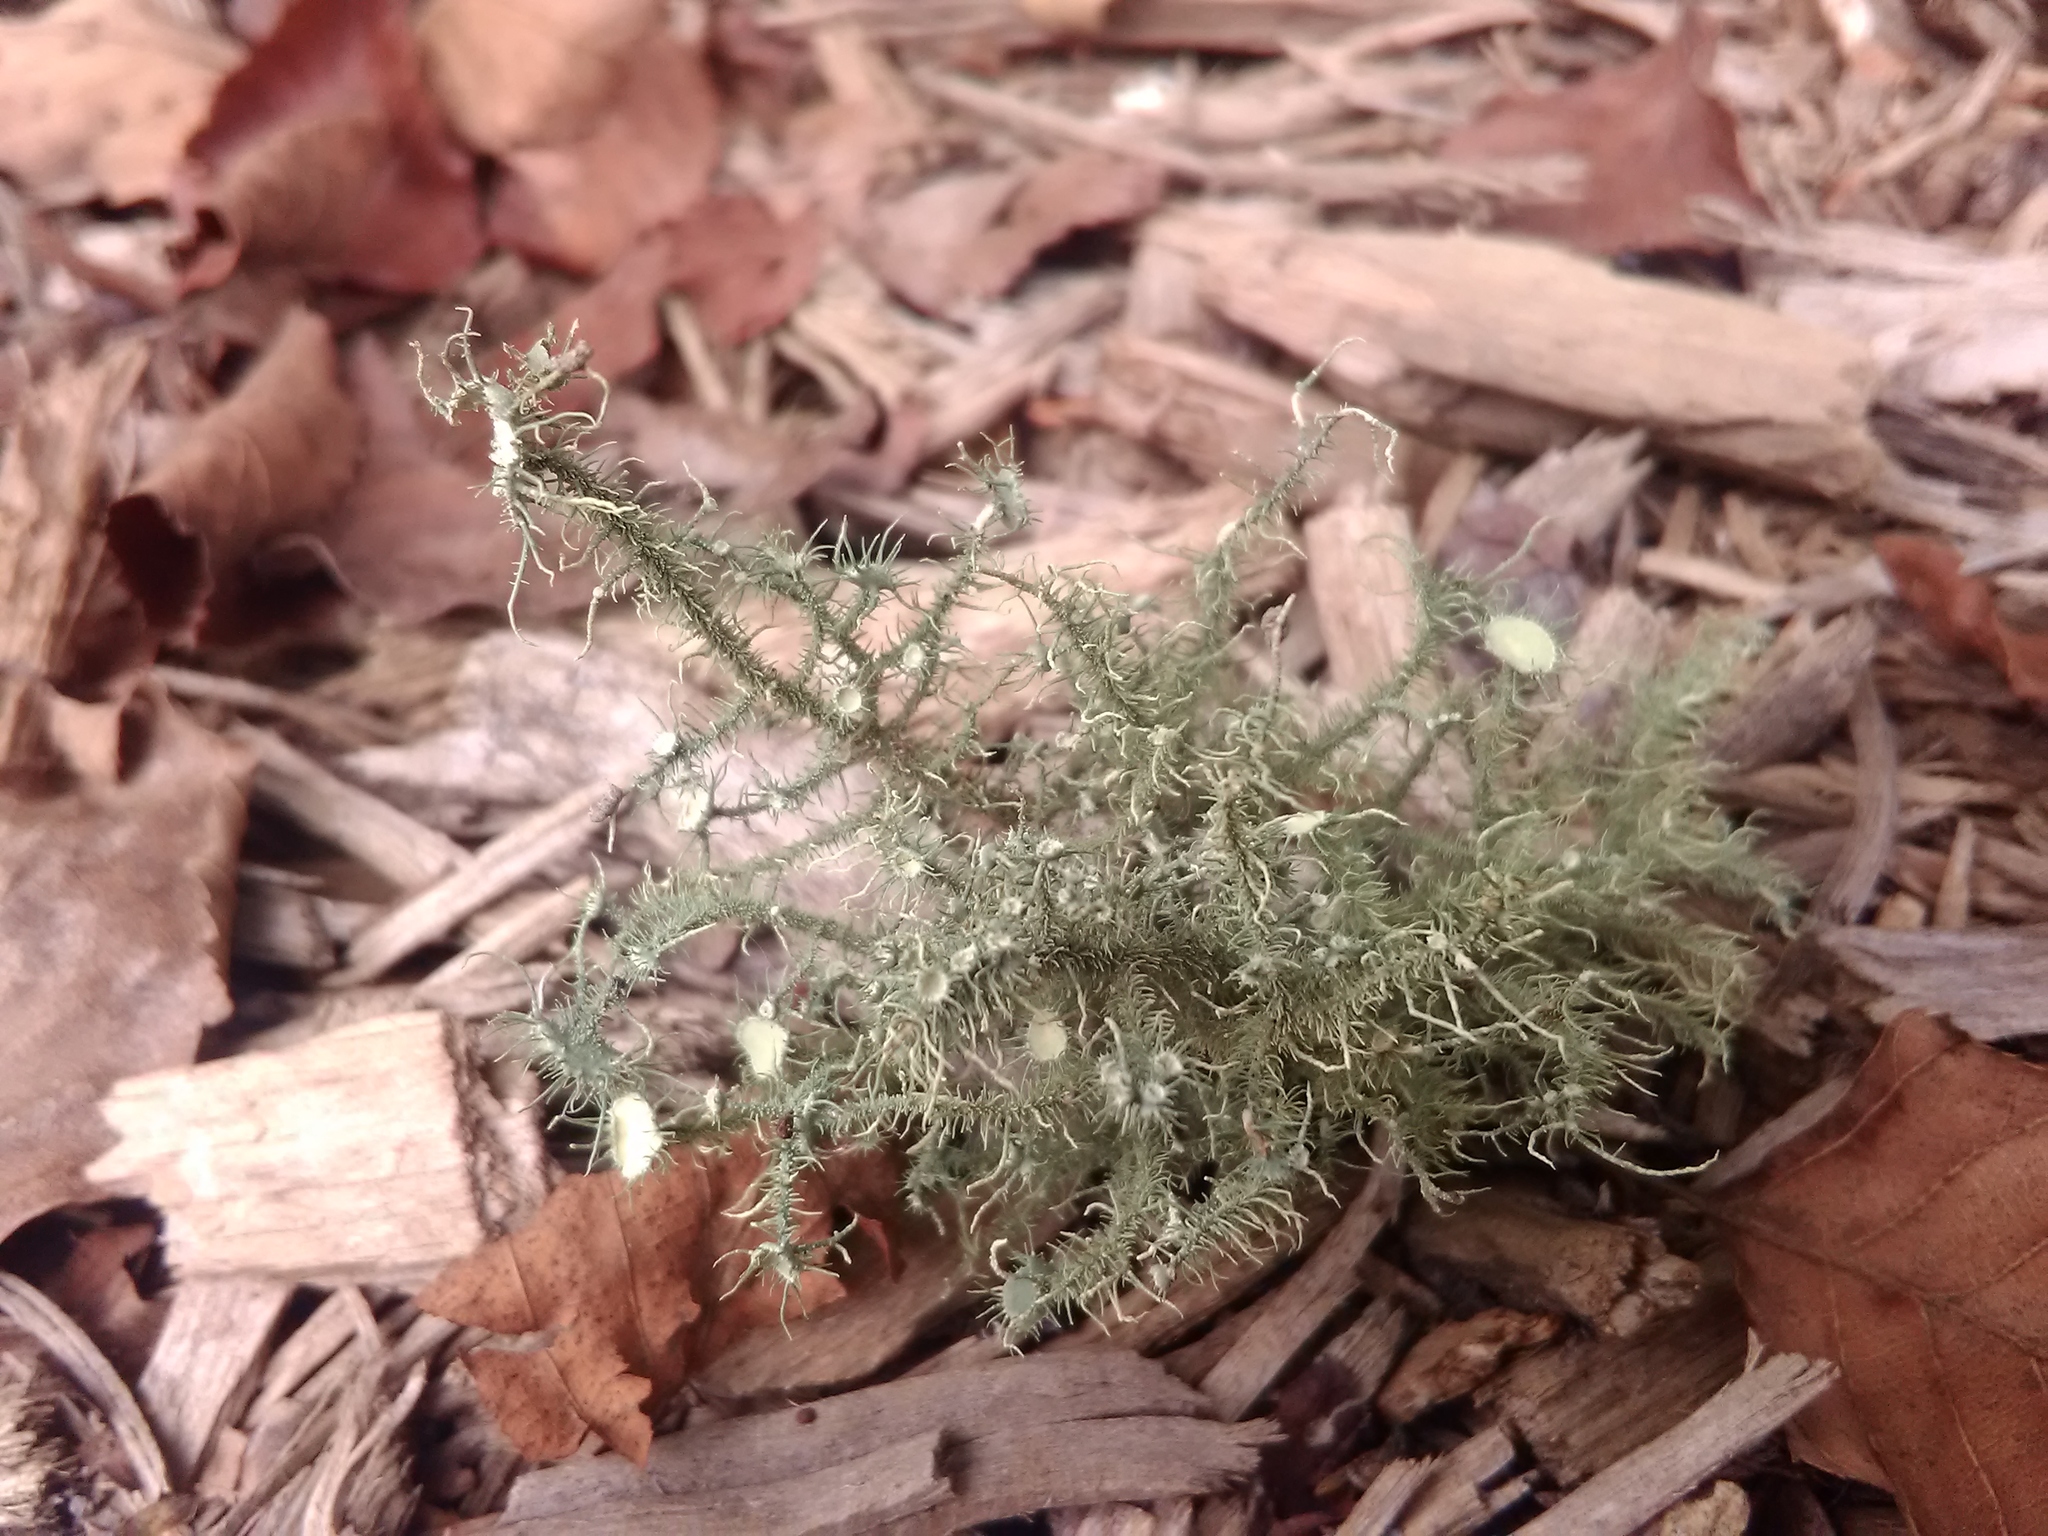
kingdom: Fungi
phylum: Ascomycota
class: Lecanoromycetes
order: Lecanorales
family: Parmeliaceae
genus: Usnea
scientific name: Usnea strigosa
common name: Bushy beard lichen
